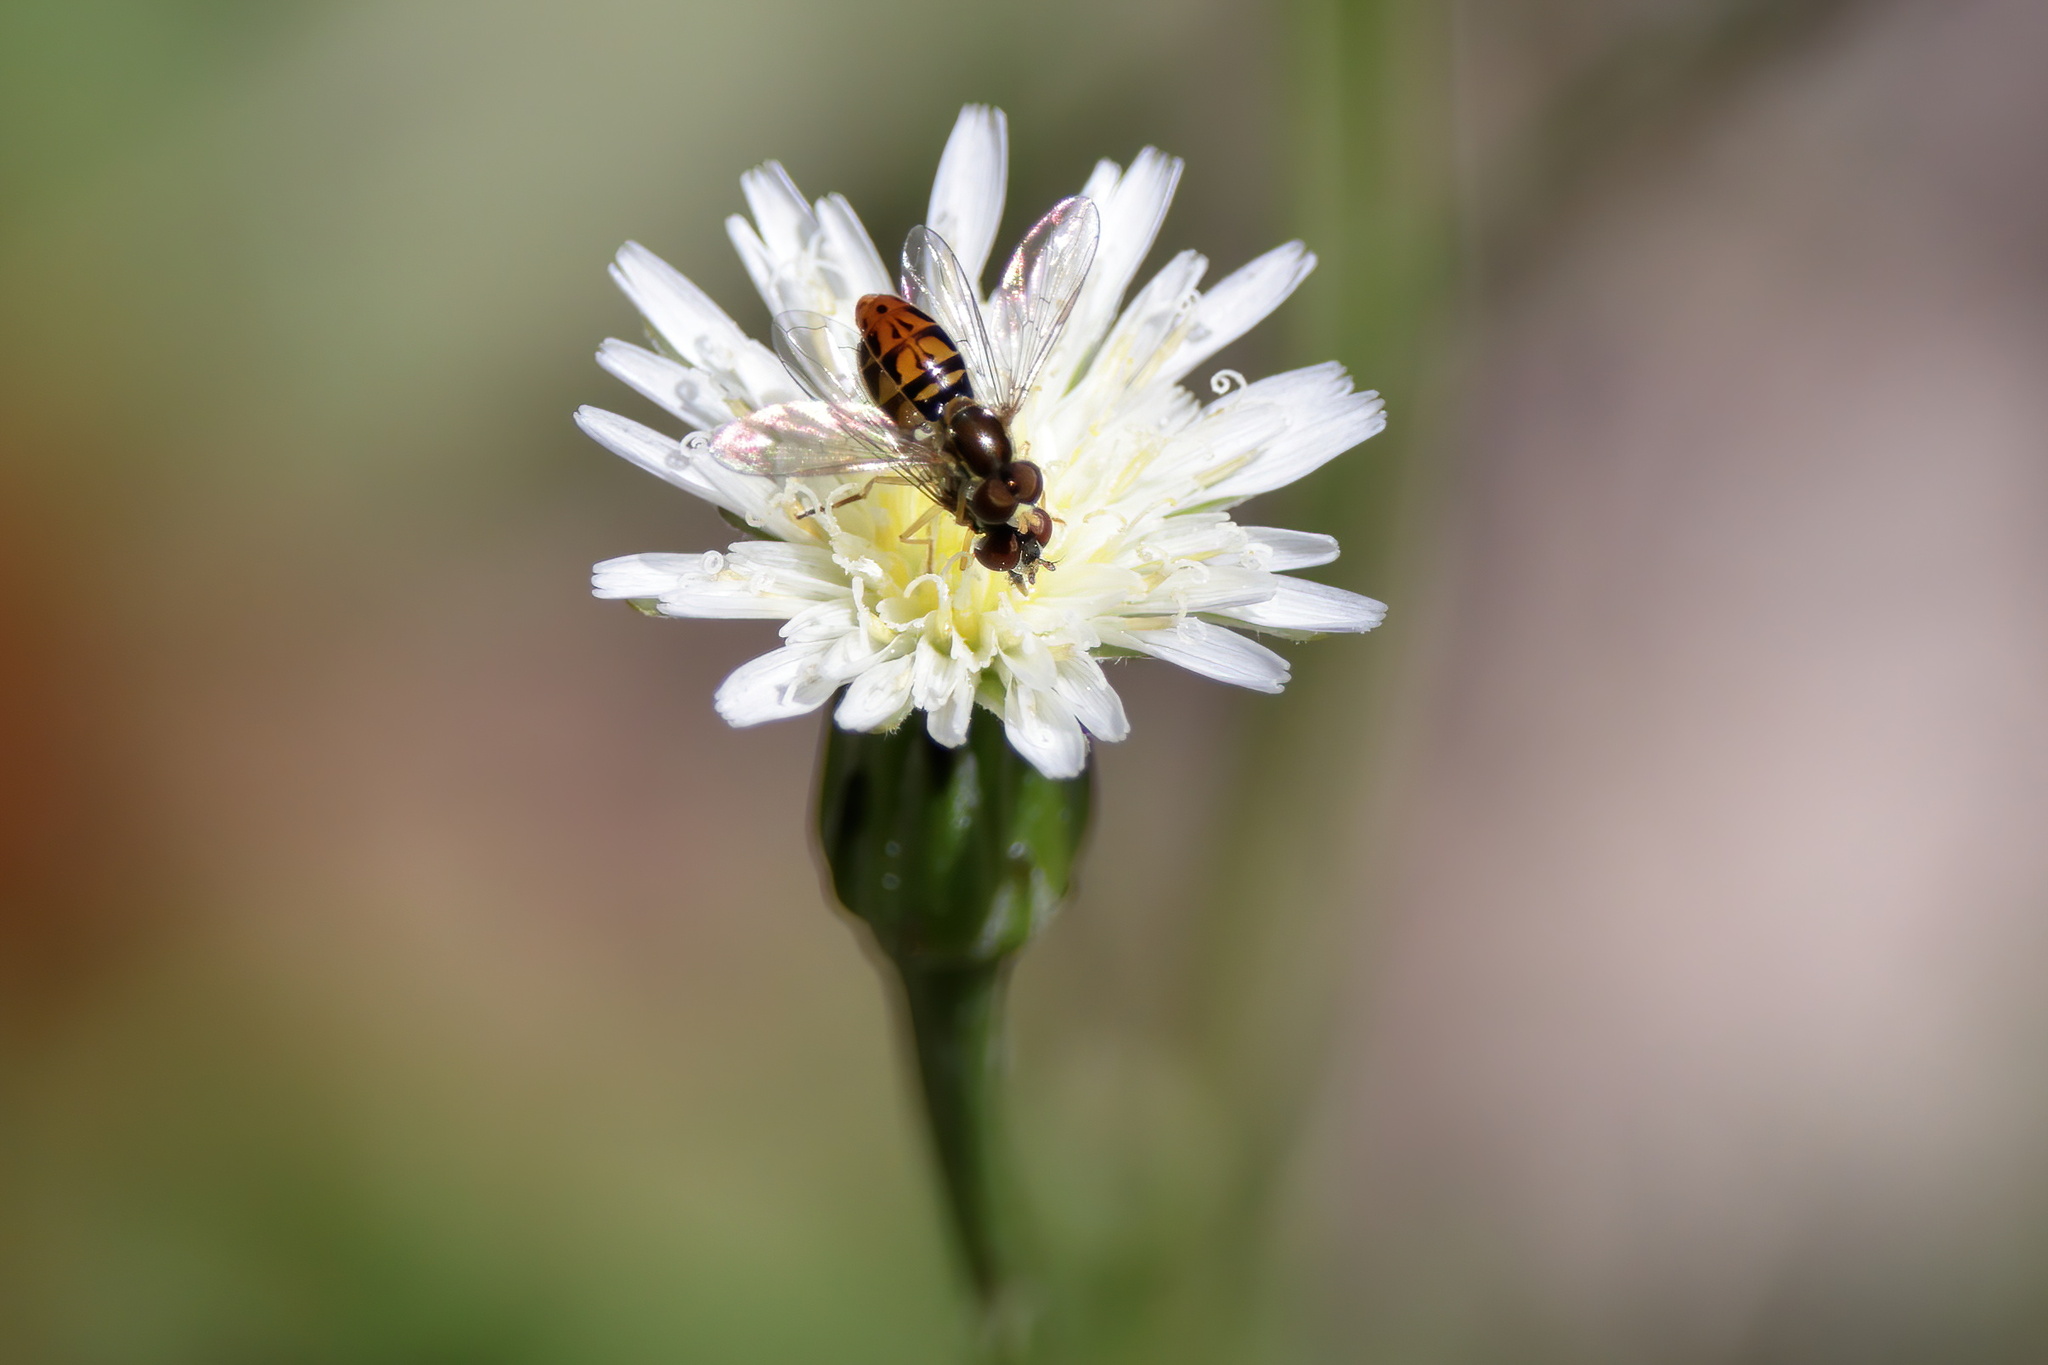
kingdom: Animalia
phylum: Arthropoda
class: Insecta
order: Diptera
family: Syrphidae
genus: Toxomerus
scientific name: Toxomerus marginatus
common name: Syrphid fly
